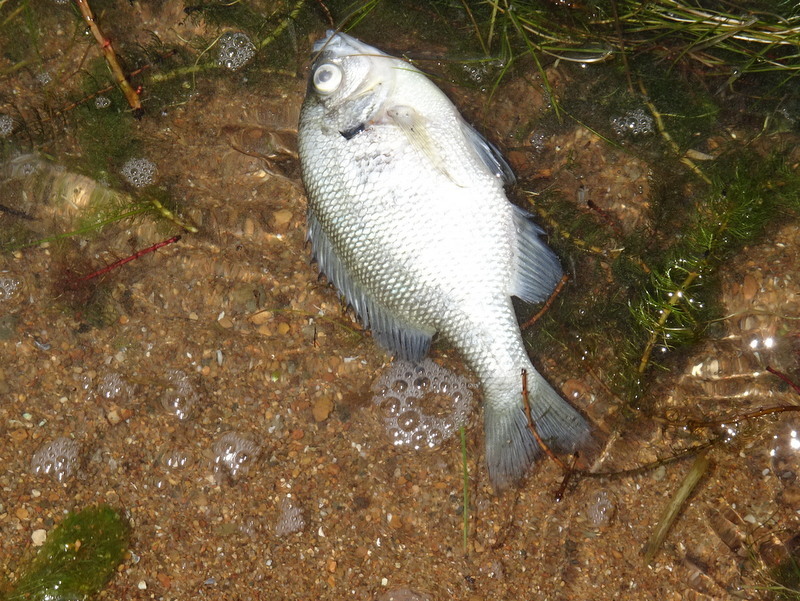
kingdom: Animalia
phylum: Chordata
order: Perciformes
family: Centrarchidae
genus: Lepomis
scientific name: Lepomis macrochirus
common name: Bluegill
